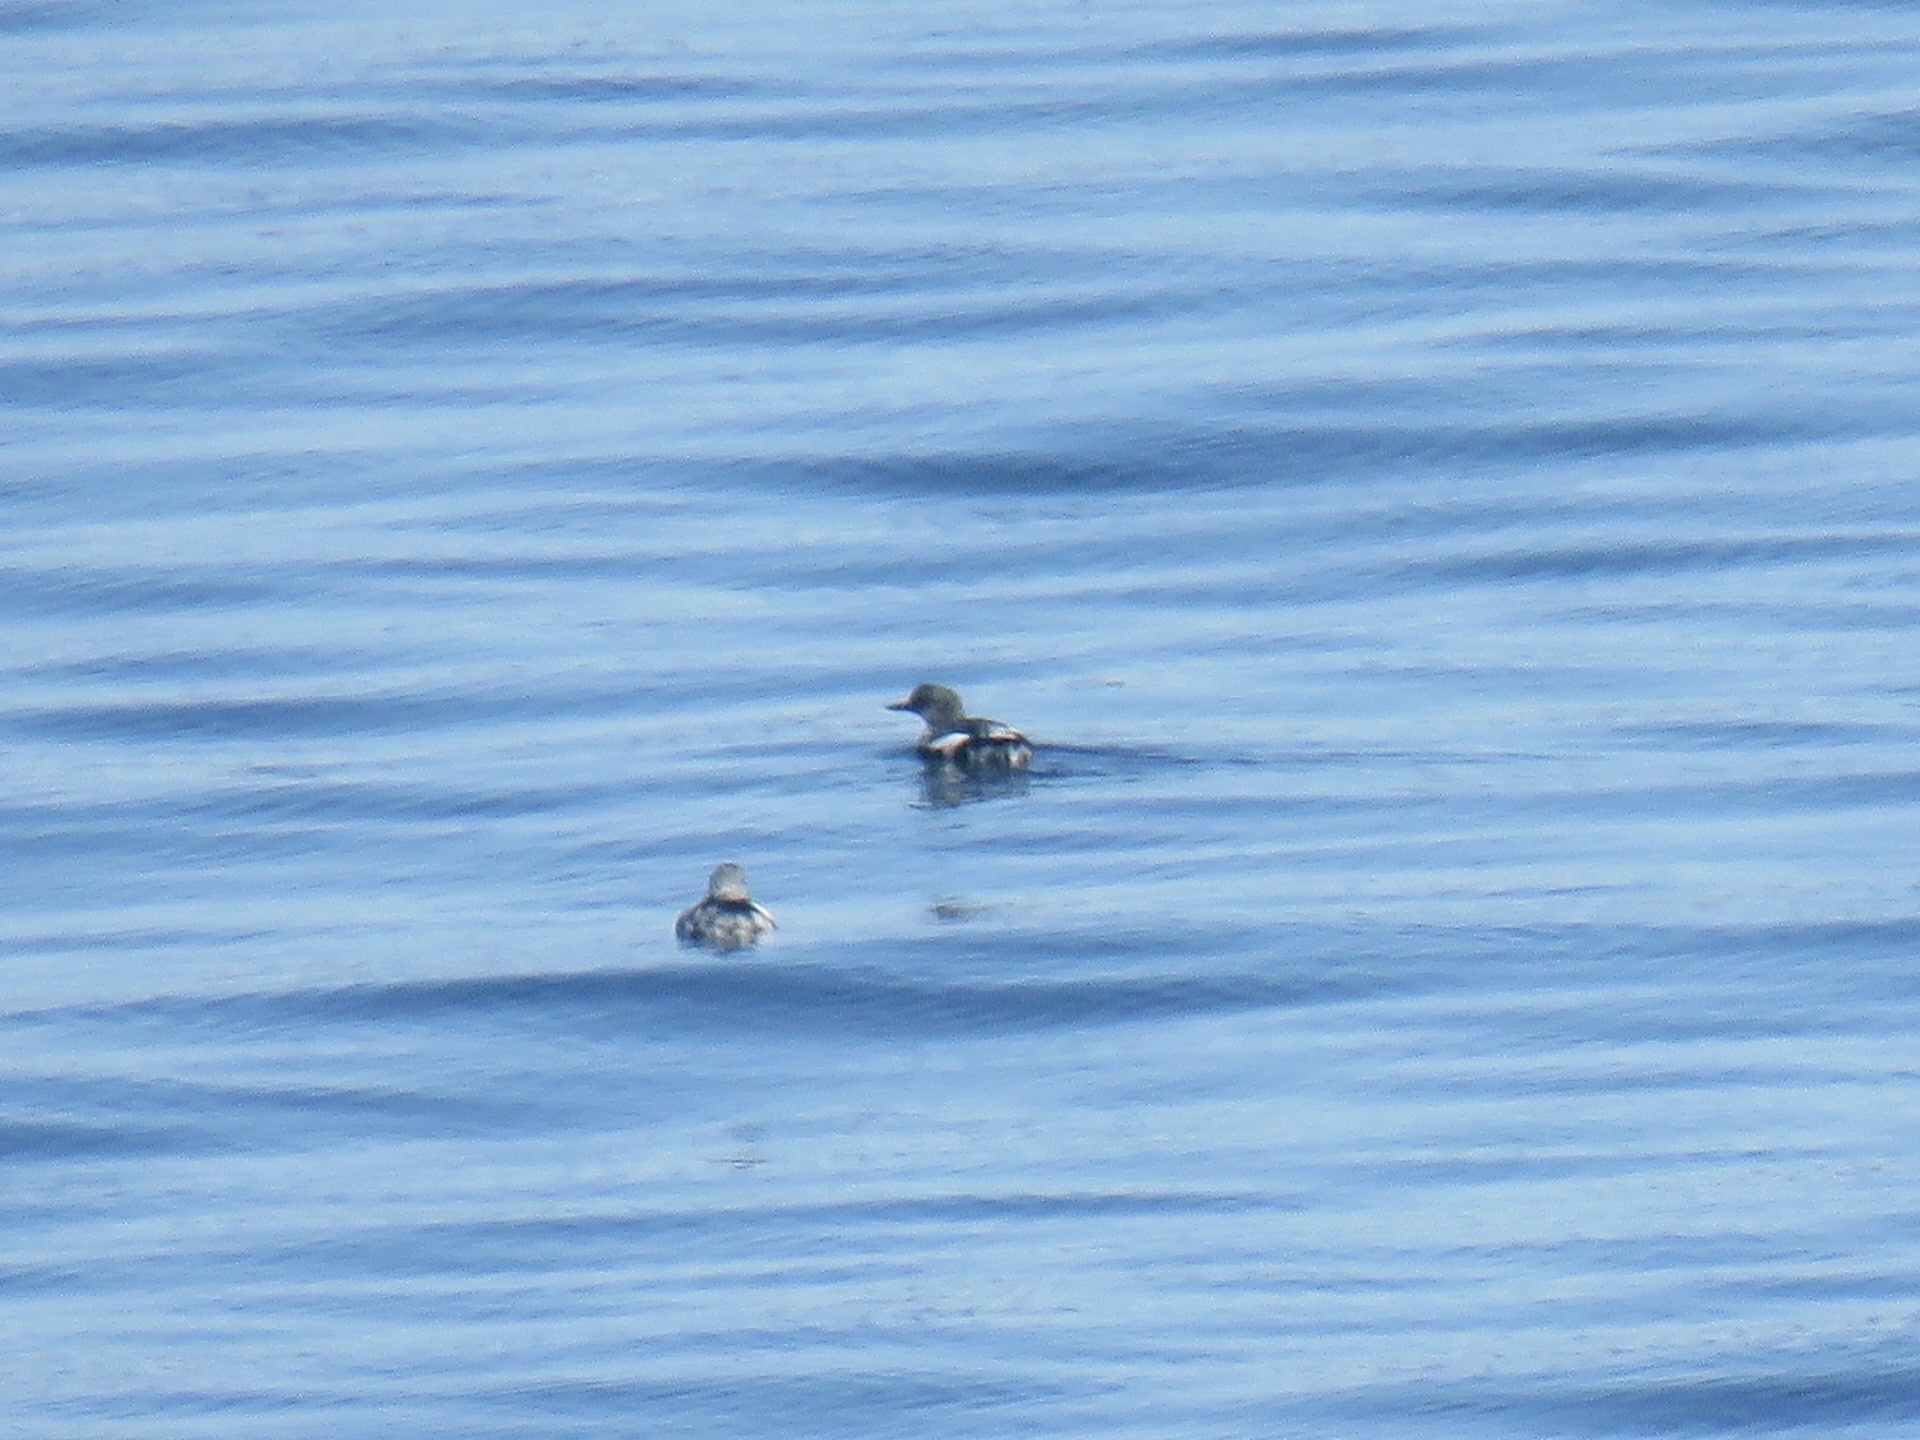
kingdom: Animalia
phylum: Chordata
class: Aves
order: Charadriiformes
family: Alcidae
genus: Cepphus
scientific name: Cepphus columba
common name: Pigeon guillemot
